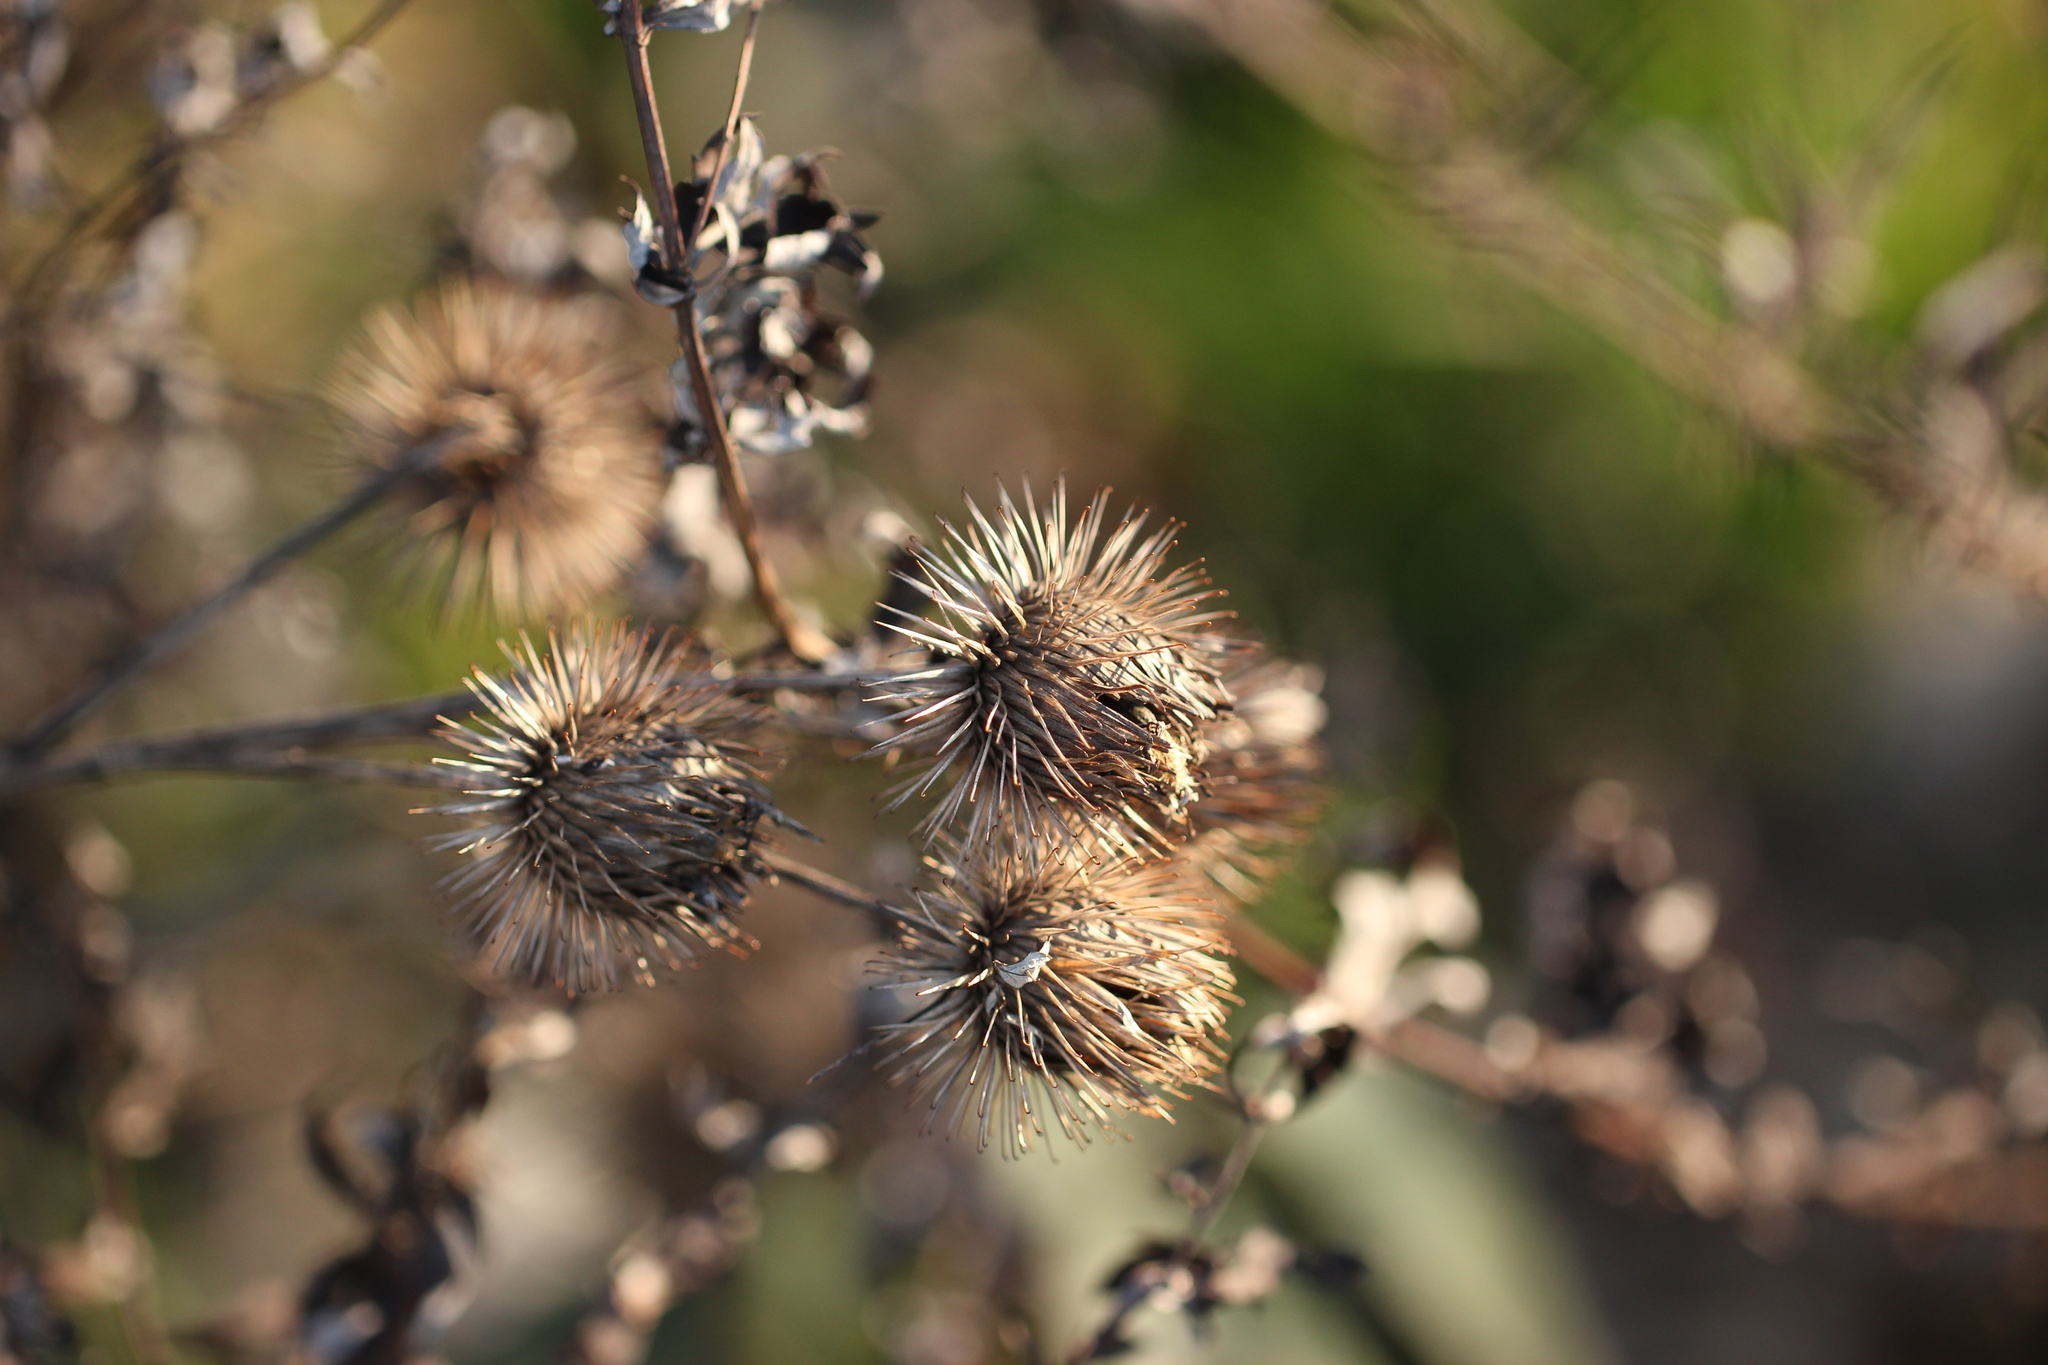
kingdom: Plantae
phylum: Tracheophyta
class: Magnoliopsida
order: Asterales
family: Asteraceae
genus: Arctium
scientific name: Arctium lappa
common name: Greater burdock
